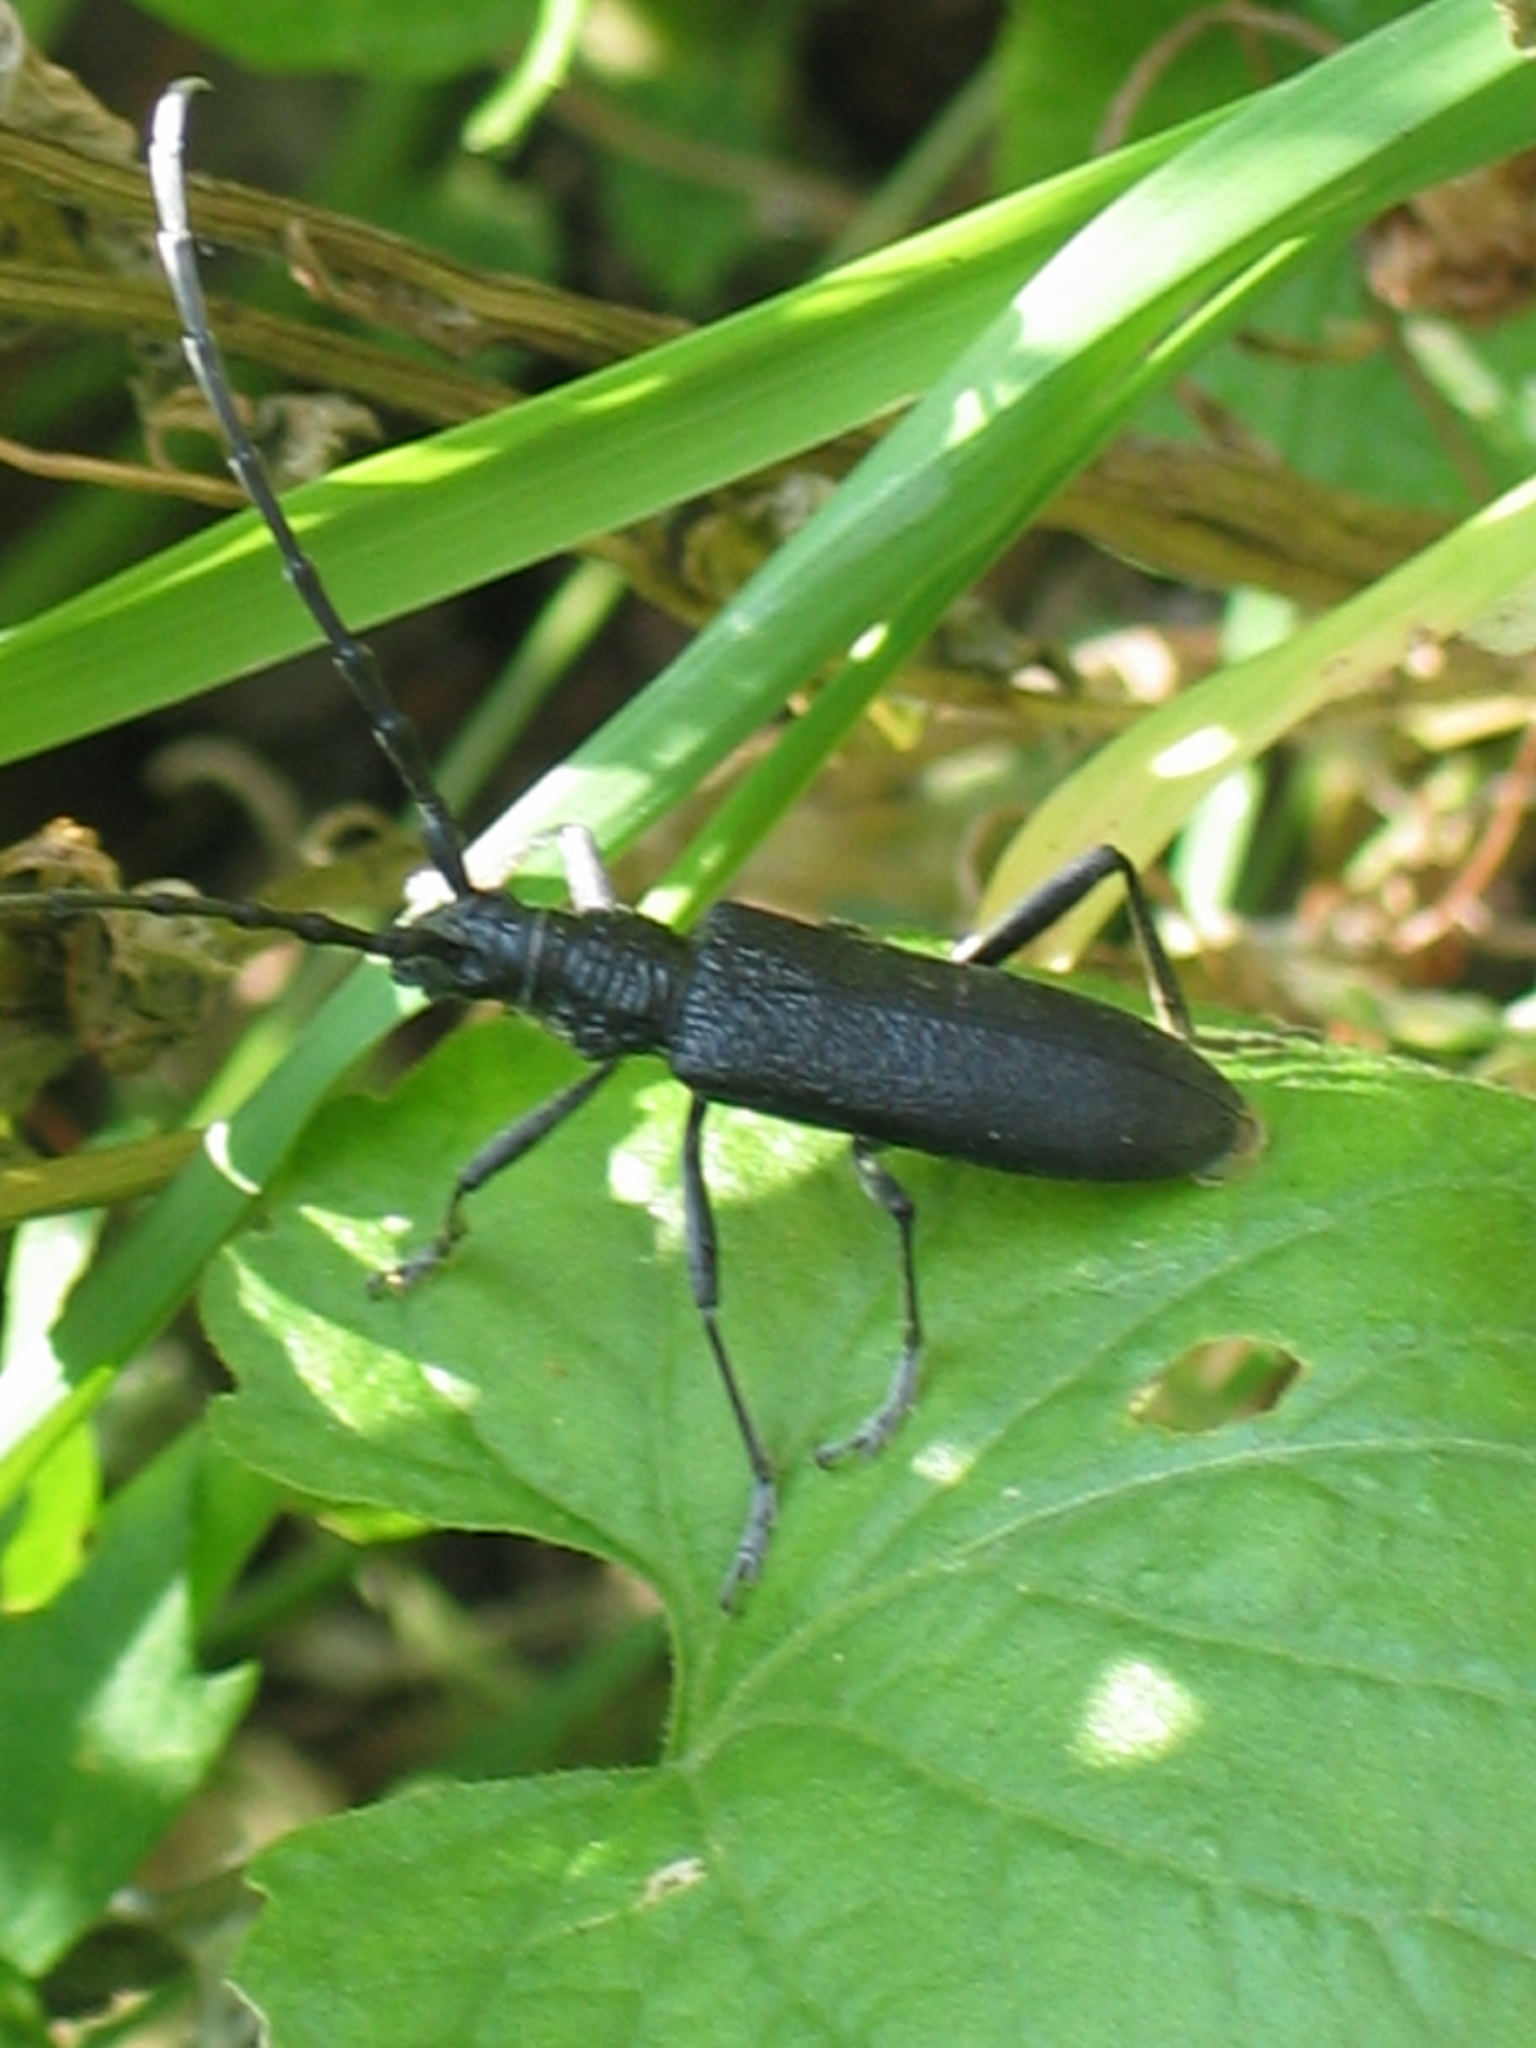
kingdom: Animalia
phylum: Arthropoda
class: Insecta
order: Coleoptera
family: Cerambycidae
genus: Cerambyx
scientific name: Cerambyx scopolii
